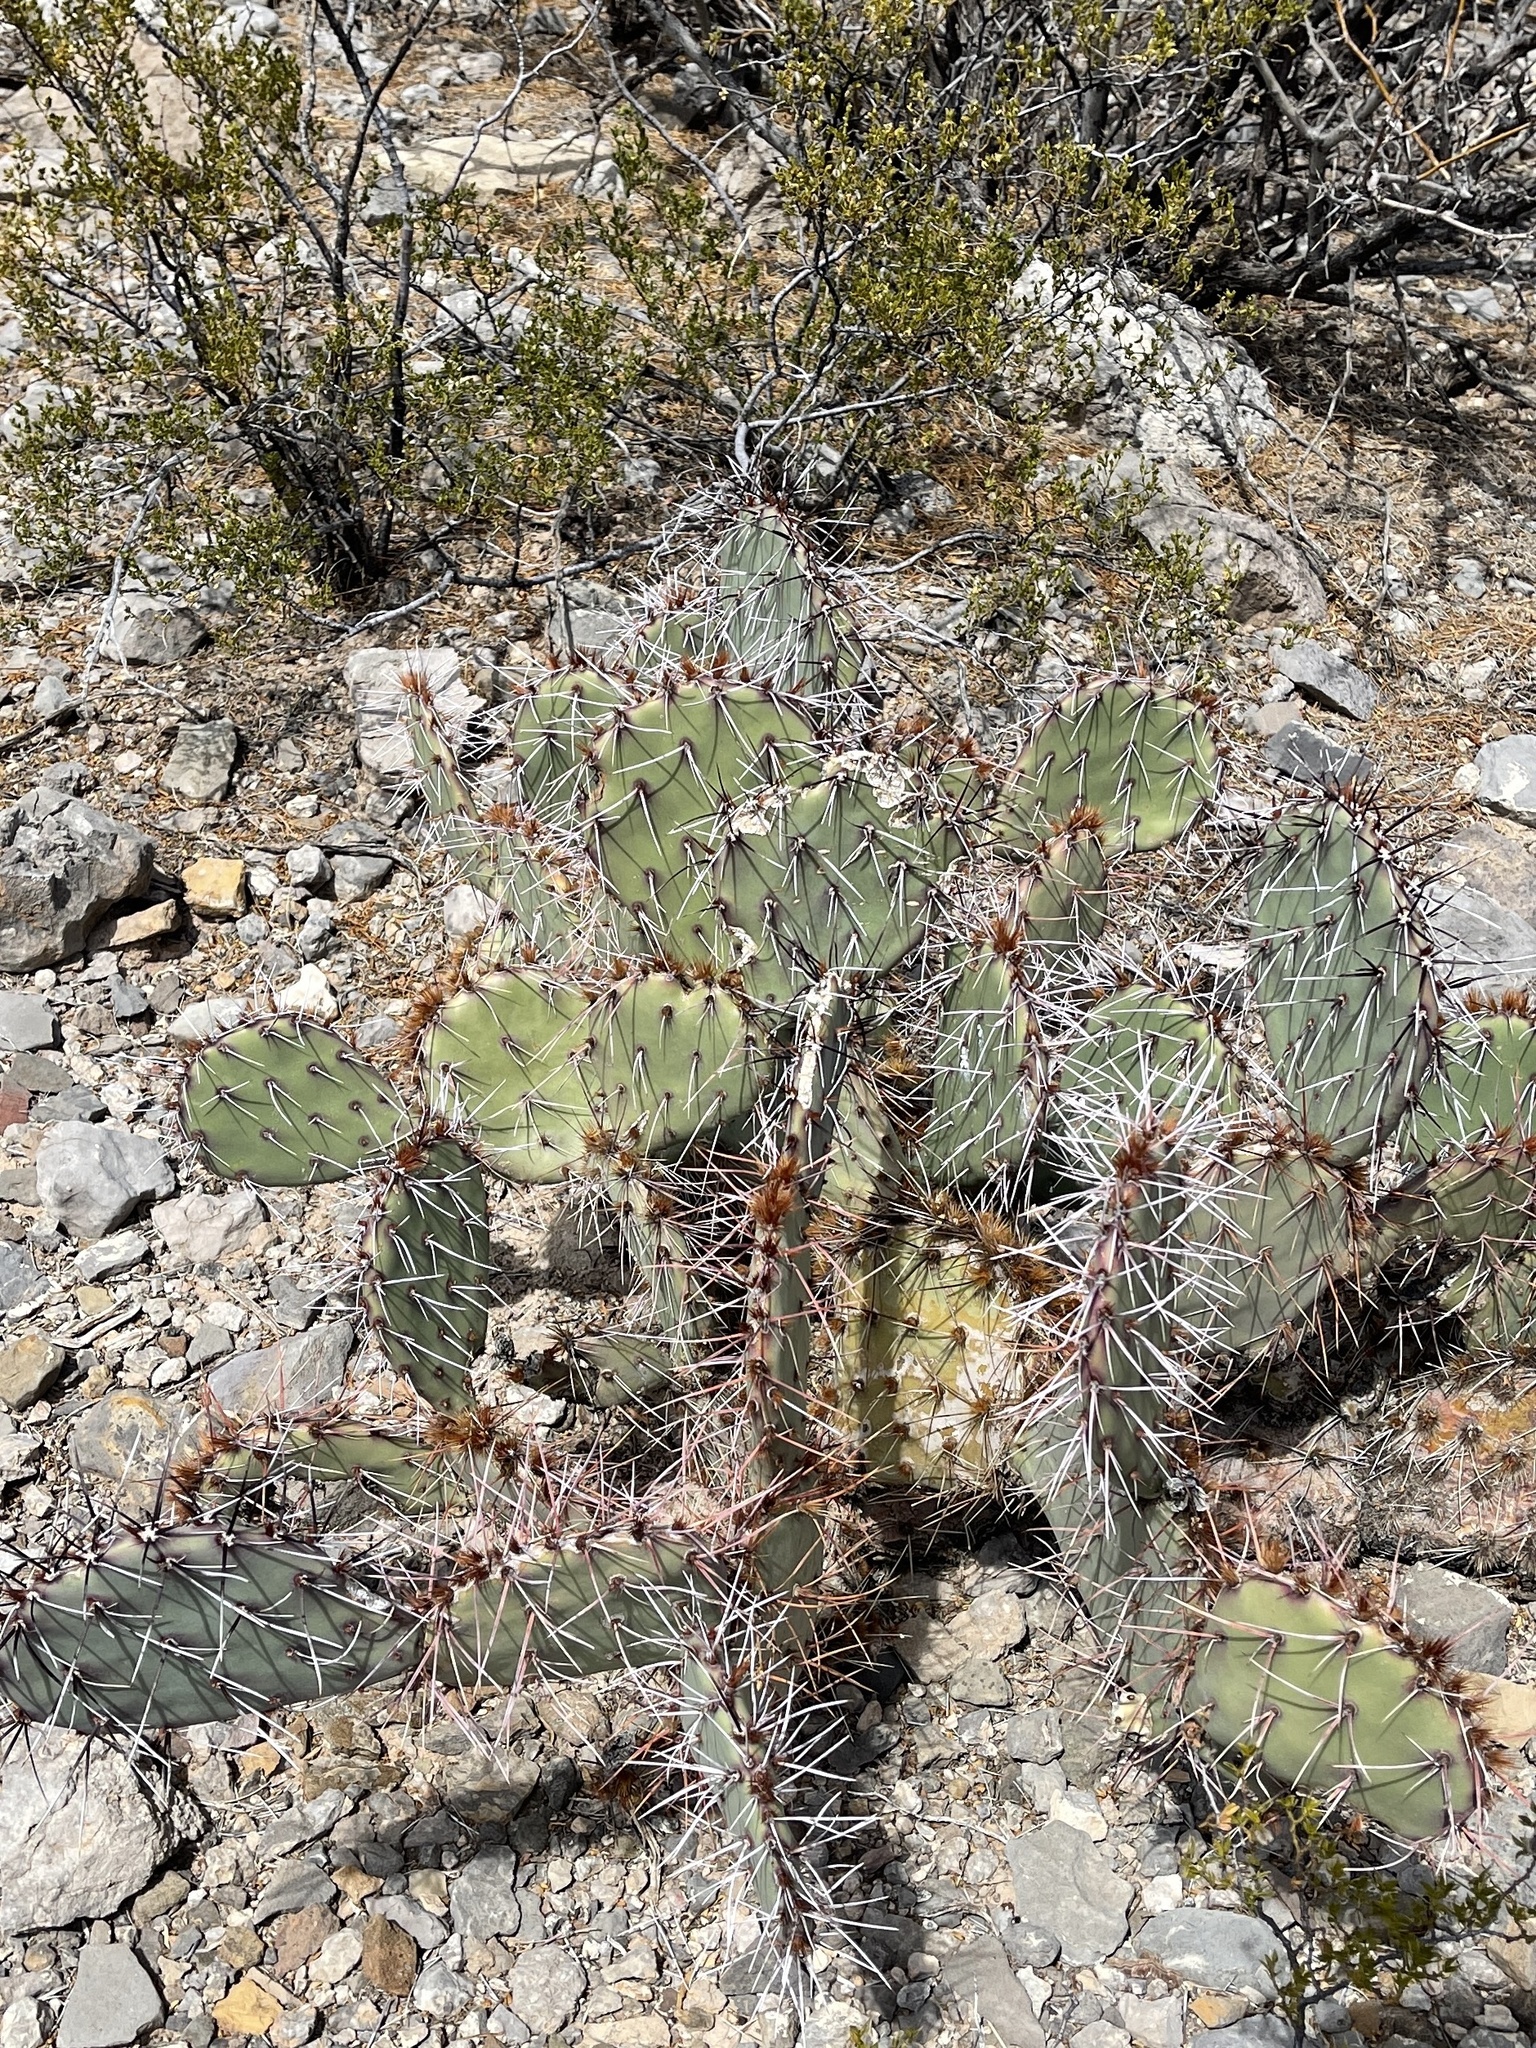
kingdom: Plantae
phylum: Tracheophyta
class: Magnoliopsida
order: Caryophyllales
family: Cactaceae
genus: Opuntia
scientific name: Opuntia macrorhiza
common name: Grassland pricklypear
